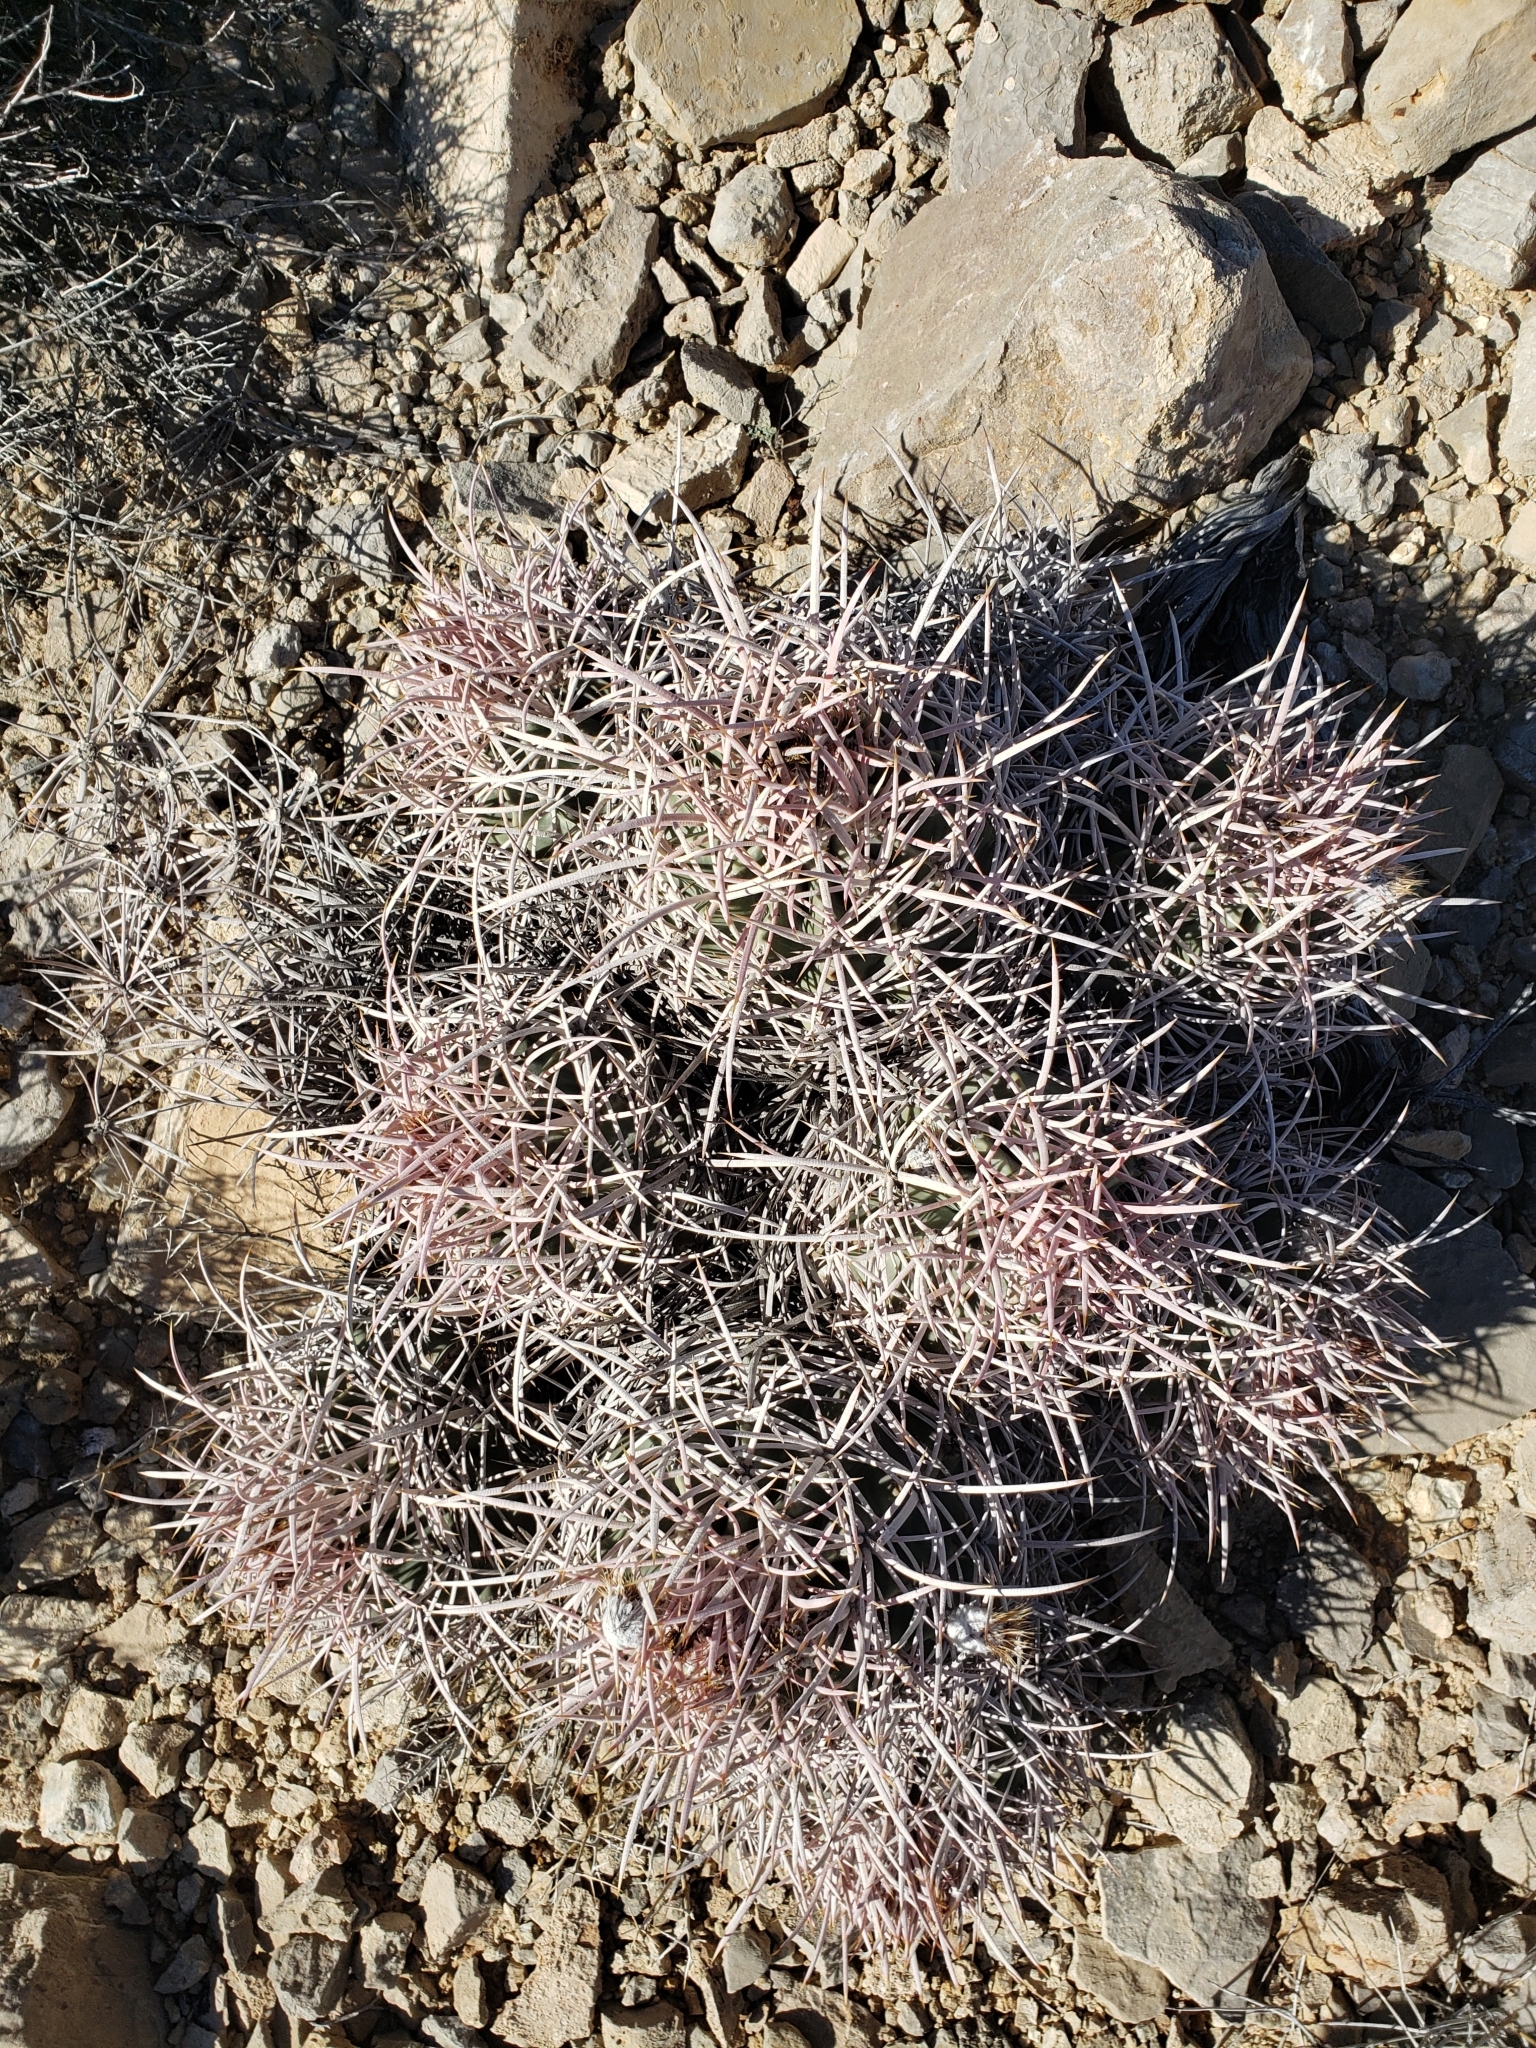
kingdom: Plantae
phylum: Tracheophyta
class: Magnoliopsida
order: Caryophyllales
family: Cactaceae
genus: Echinocactus
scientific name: Echinocactus polycephalus
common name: Cottontop cactus
